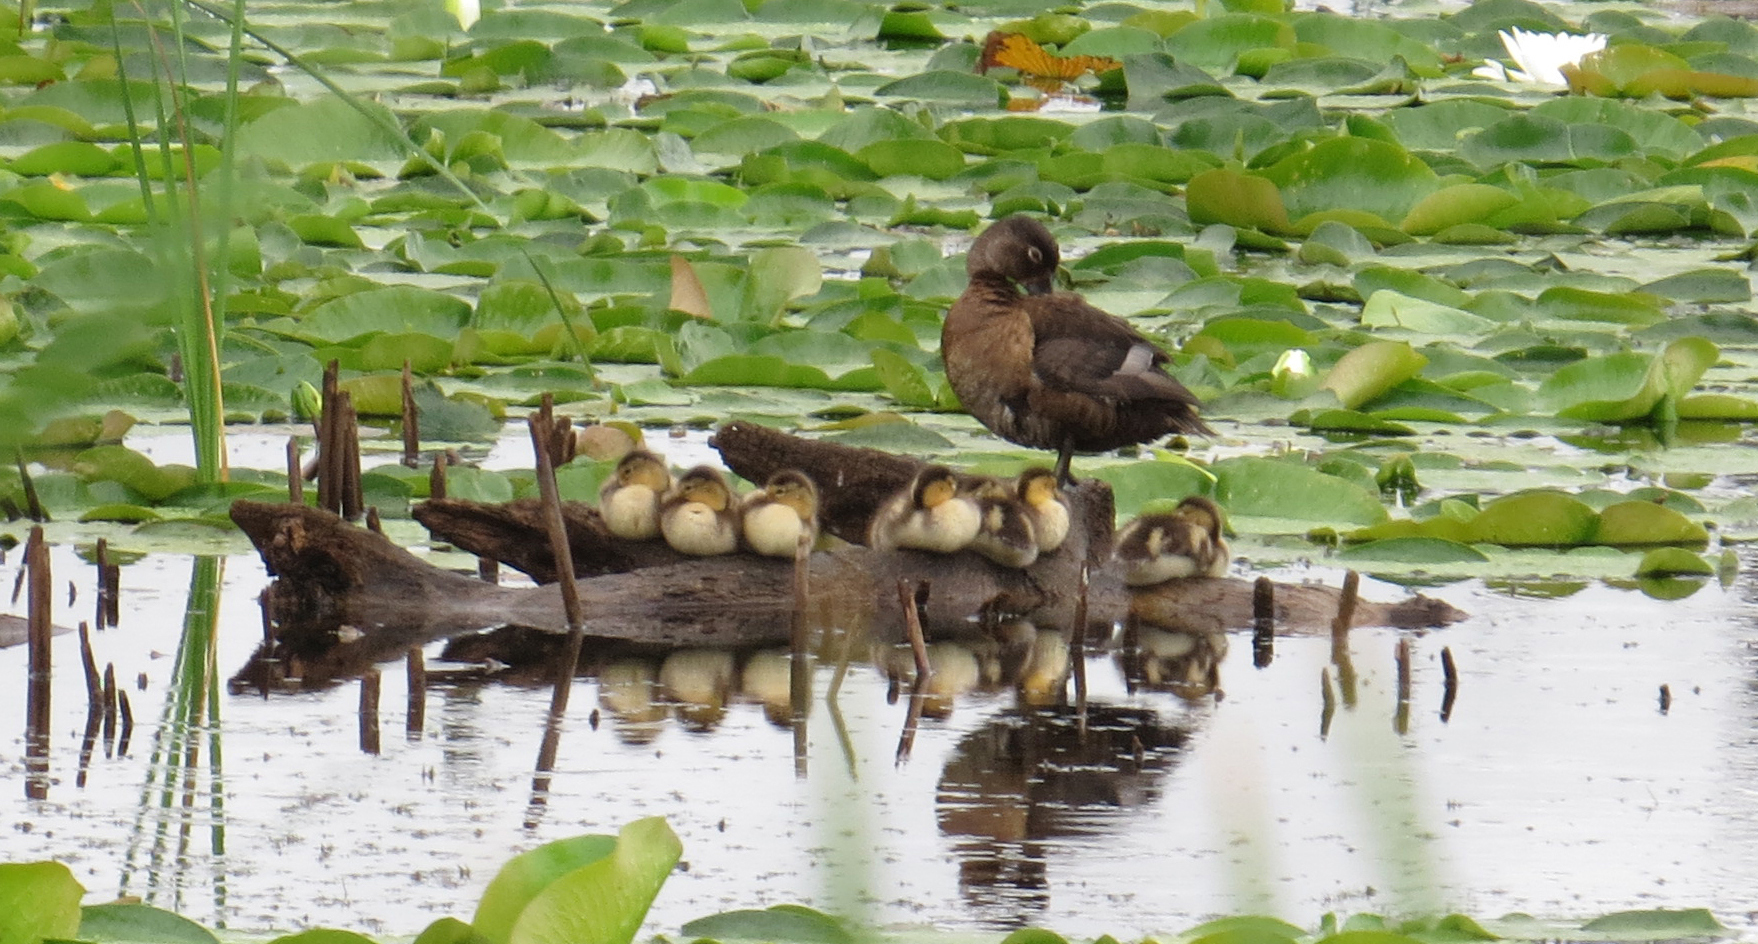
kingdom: Animalia
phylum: Chordata
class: Aves
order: Anseriformes
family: Anatidae
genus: Aythya
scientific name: Aythya collaris
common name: Ring-necked duck
